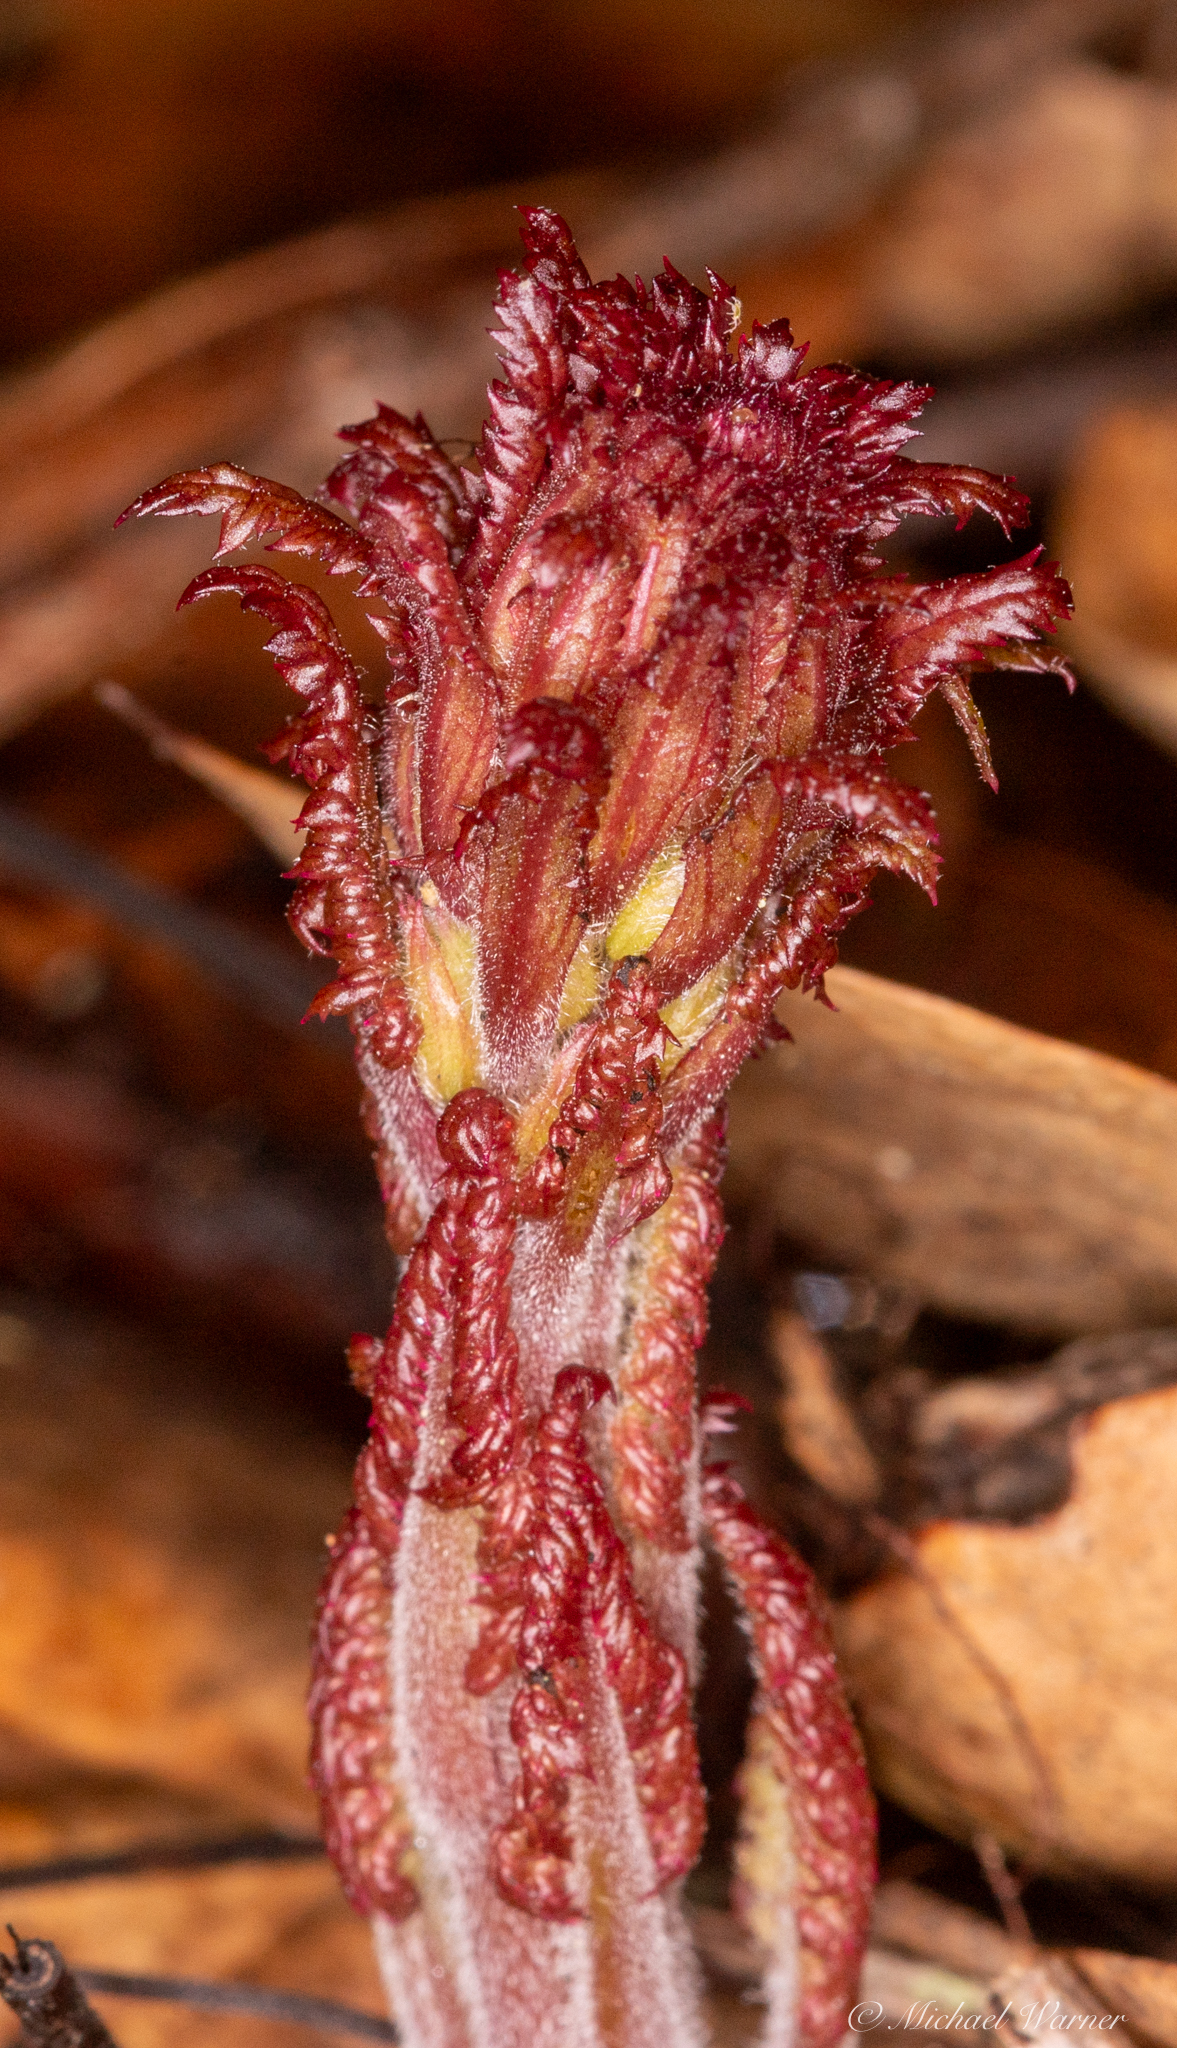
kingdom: Plantae
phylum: Tracheophyta
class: Magnoliopsida
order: Lamiales
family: Orobanchaceae
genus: Pedicularis
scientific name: Pedicularis densiflora
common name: Indian warrior
